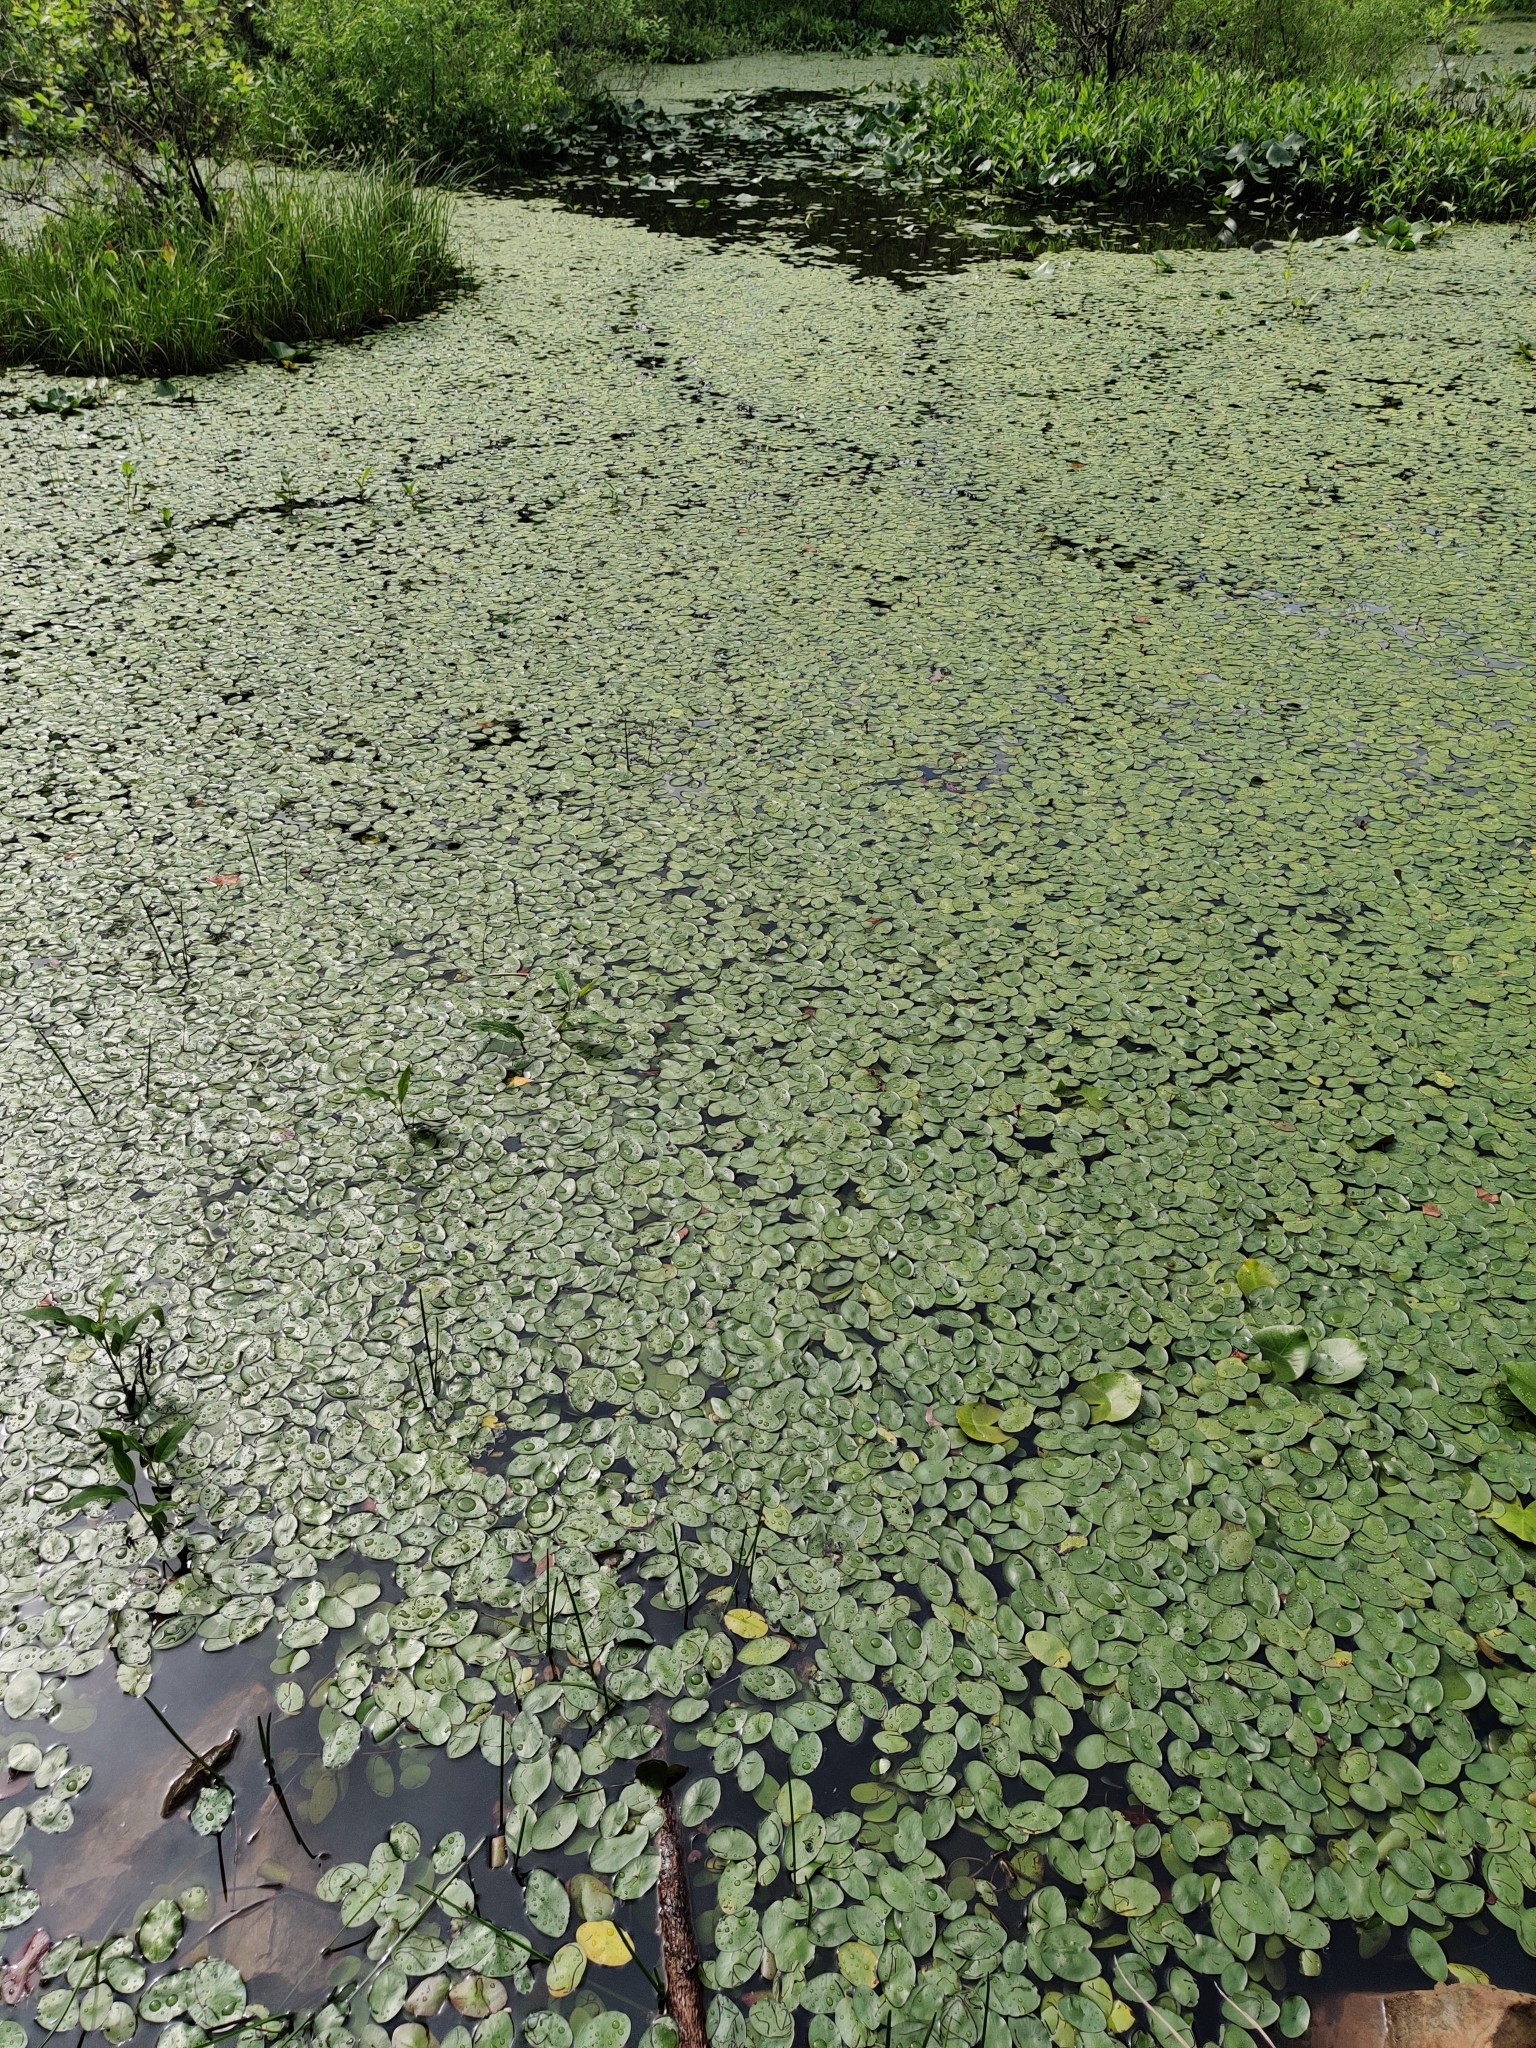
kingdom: Plantae
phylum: Tracheophyta
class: Magnoliopsida
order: Nymphaeales
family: Cabombaceae
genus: Brasenia
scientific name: Brasenia schreberi
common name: Water-shield
